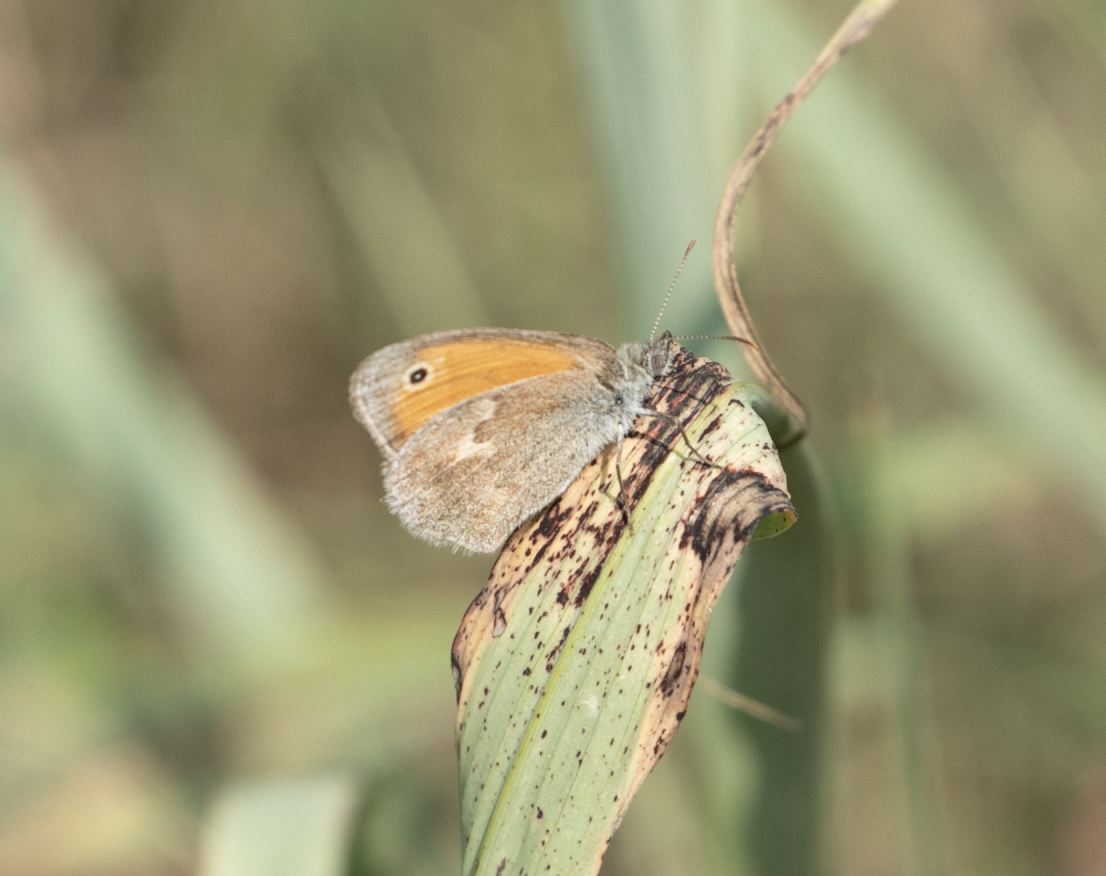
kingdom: Animalia
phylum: Arthropoda
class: Insecta
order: Lepidoptera
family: Nymphalidae
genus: Coenonympha
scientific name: Coenonympha pamphilus
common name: Small heath
